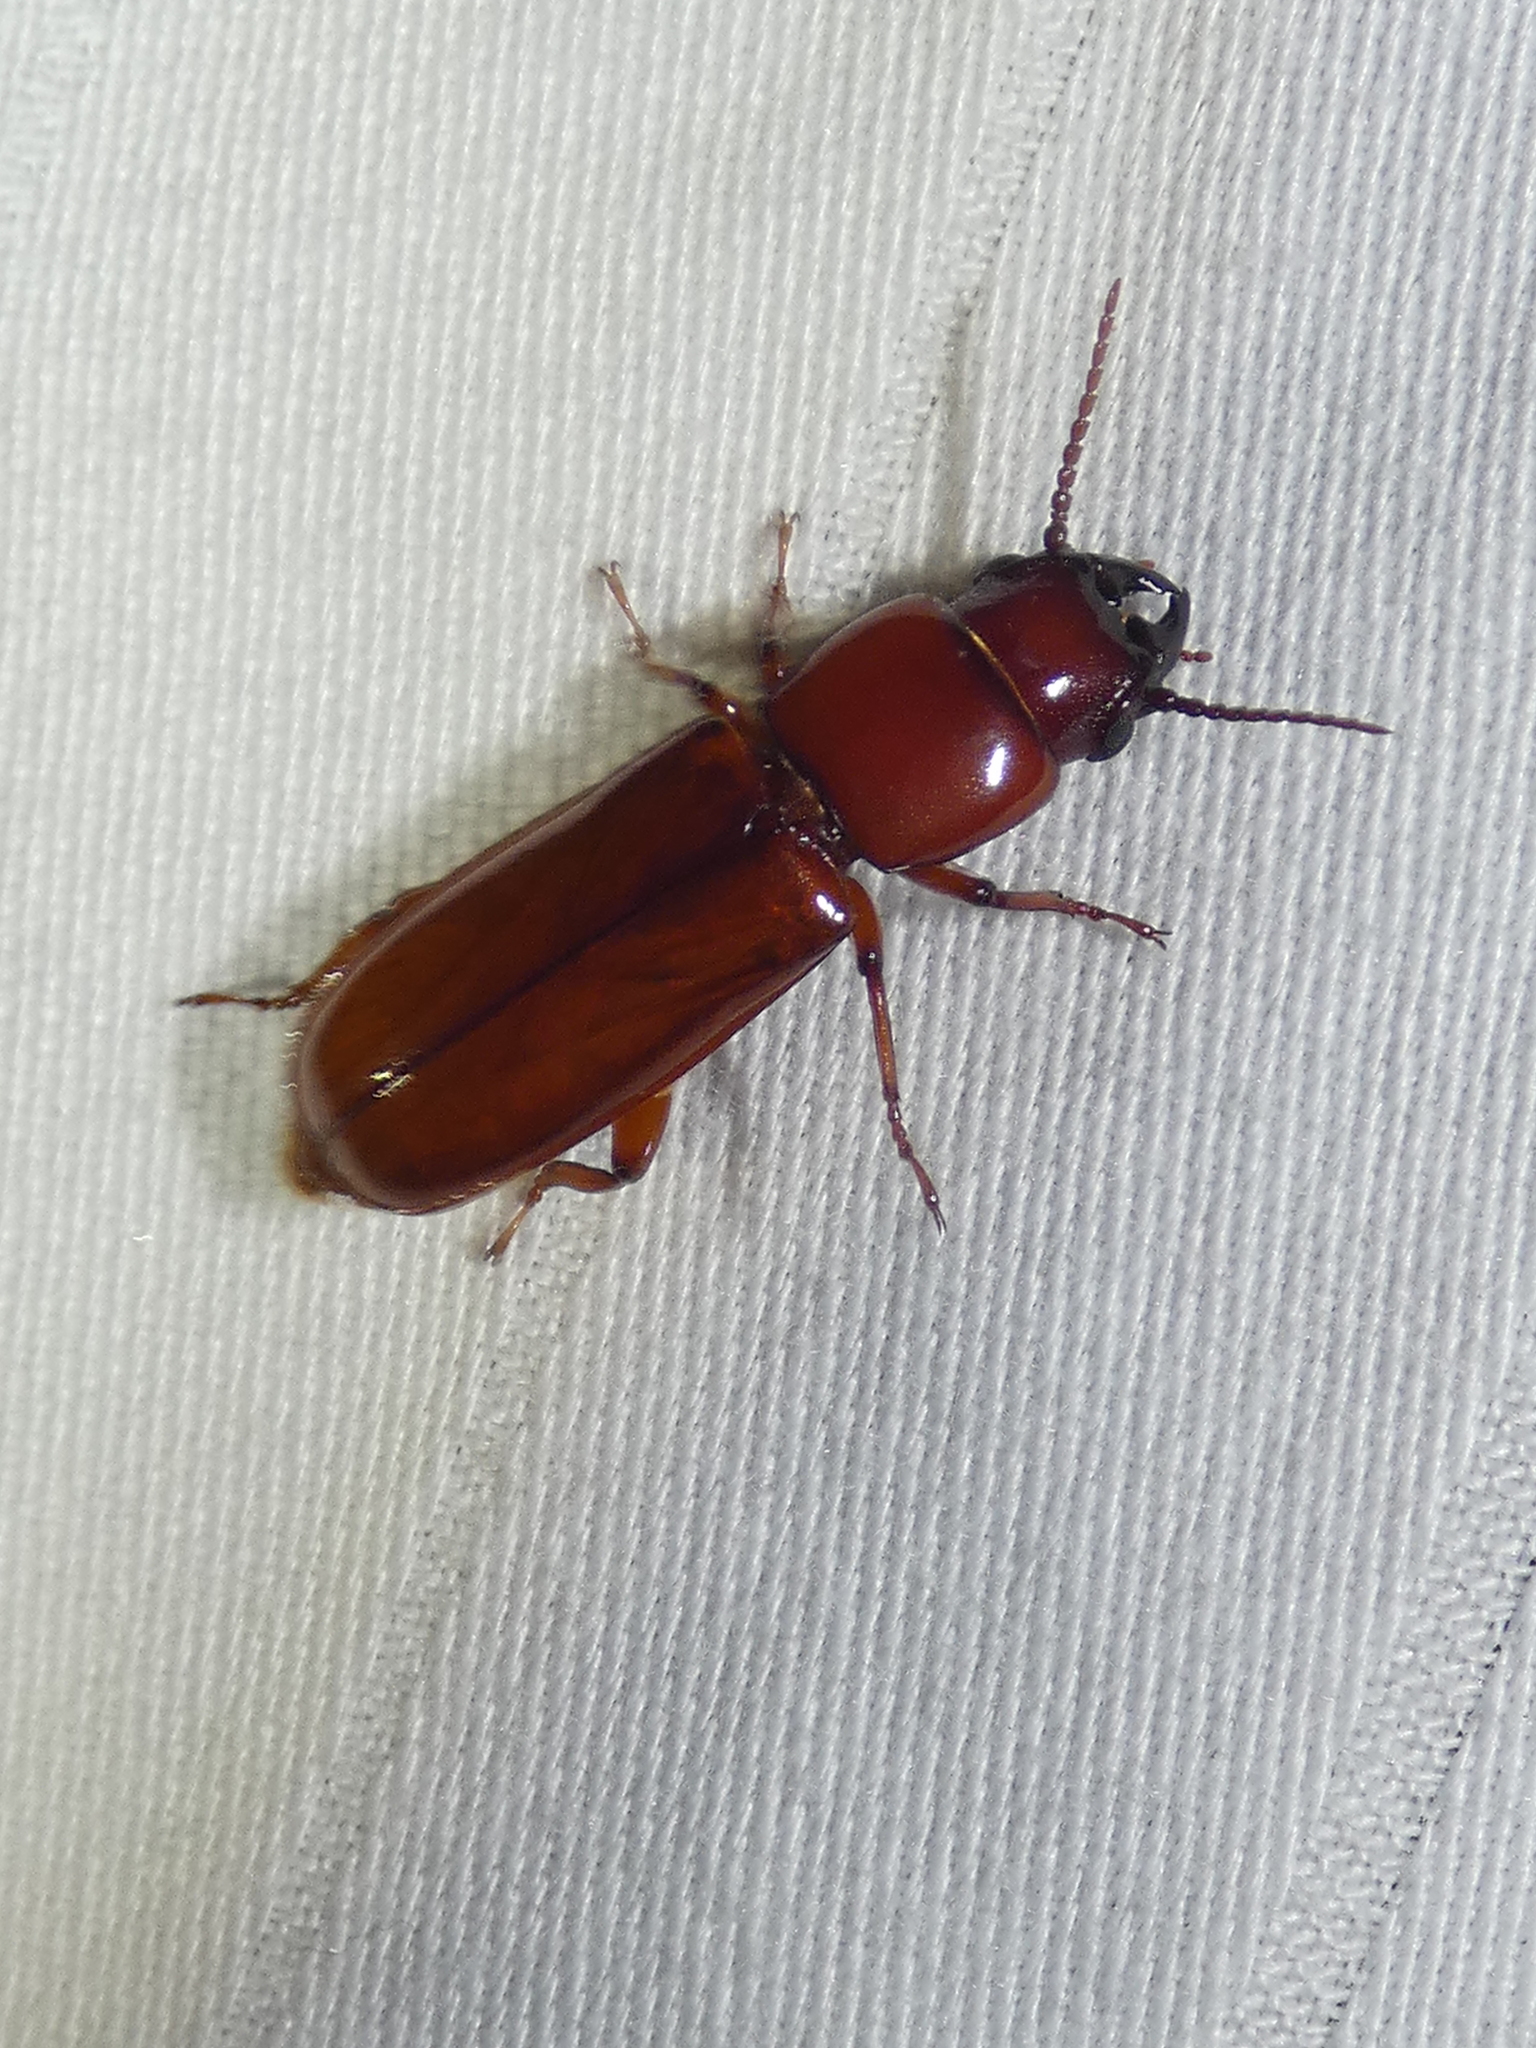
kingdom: Animalia
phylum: Arthropoda
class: Insecta
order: Coleoptera
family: Cerambycidae
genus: Parandra
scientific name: Parandra polita
